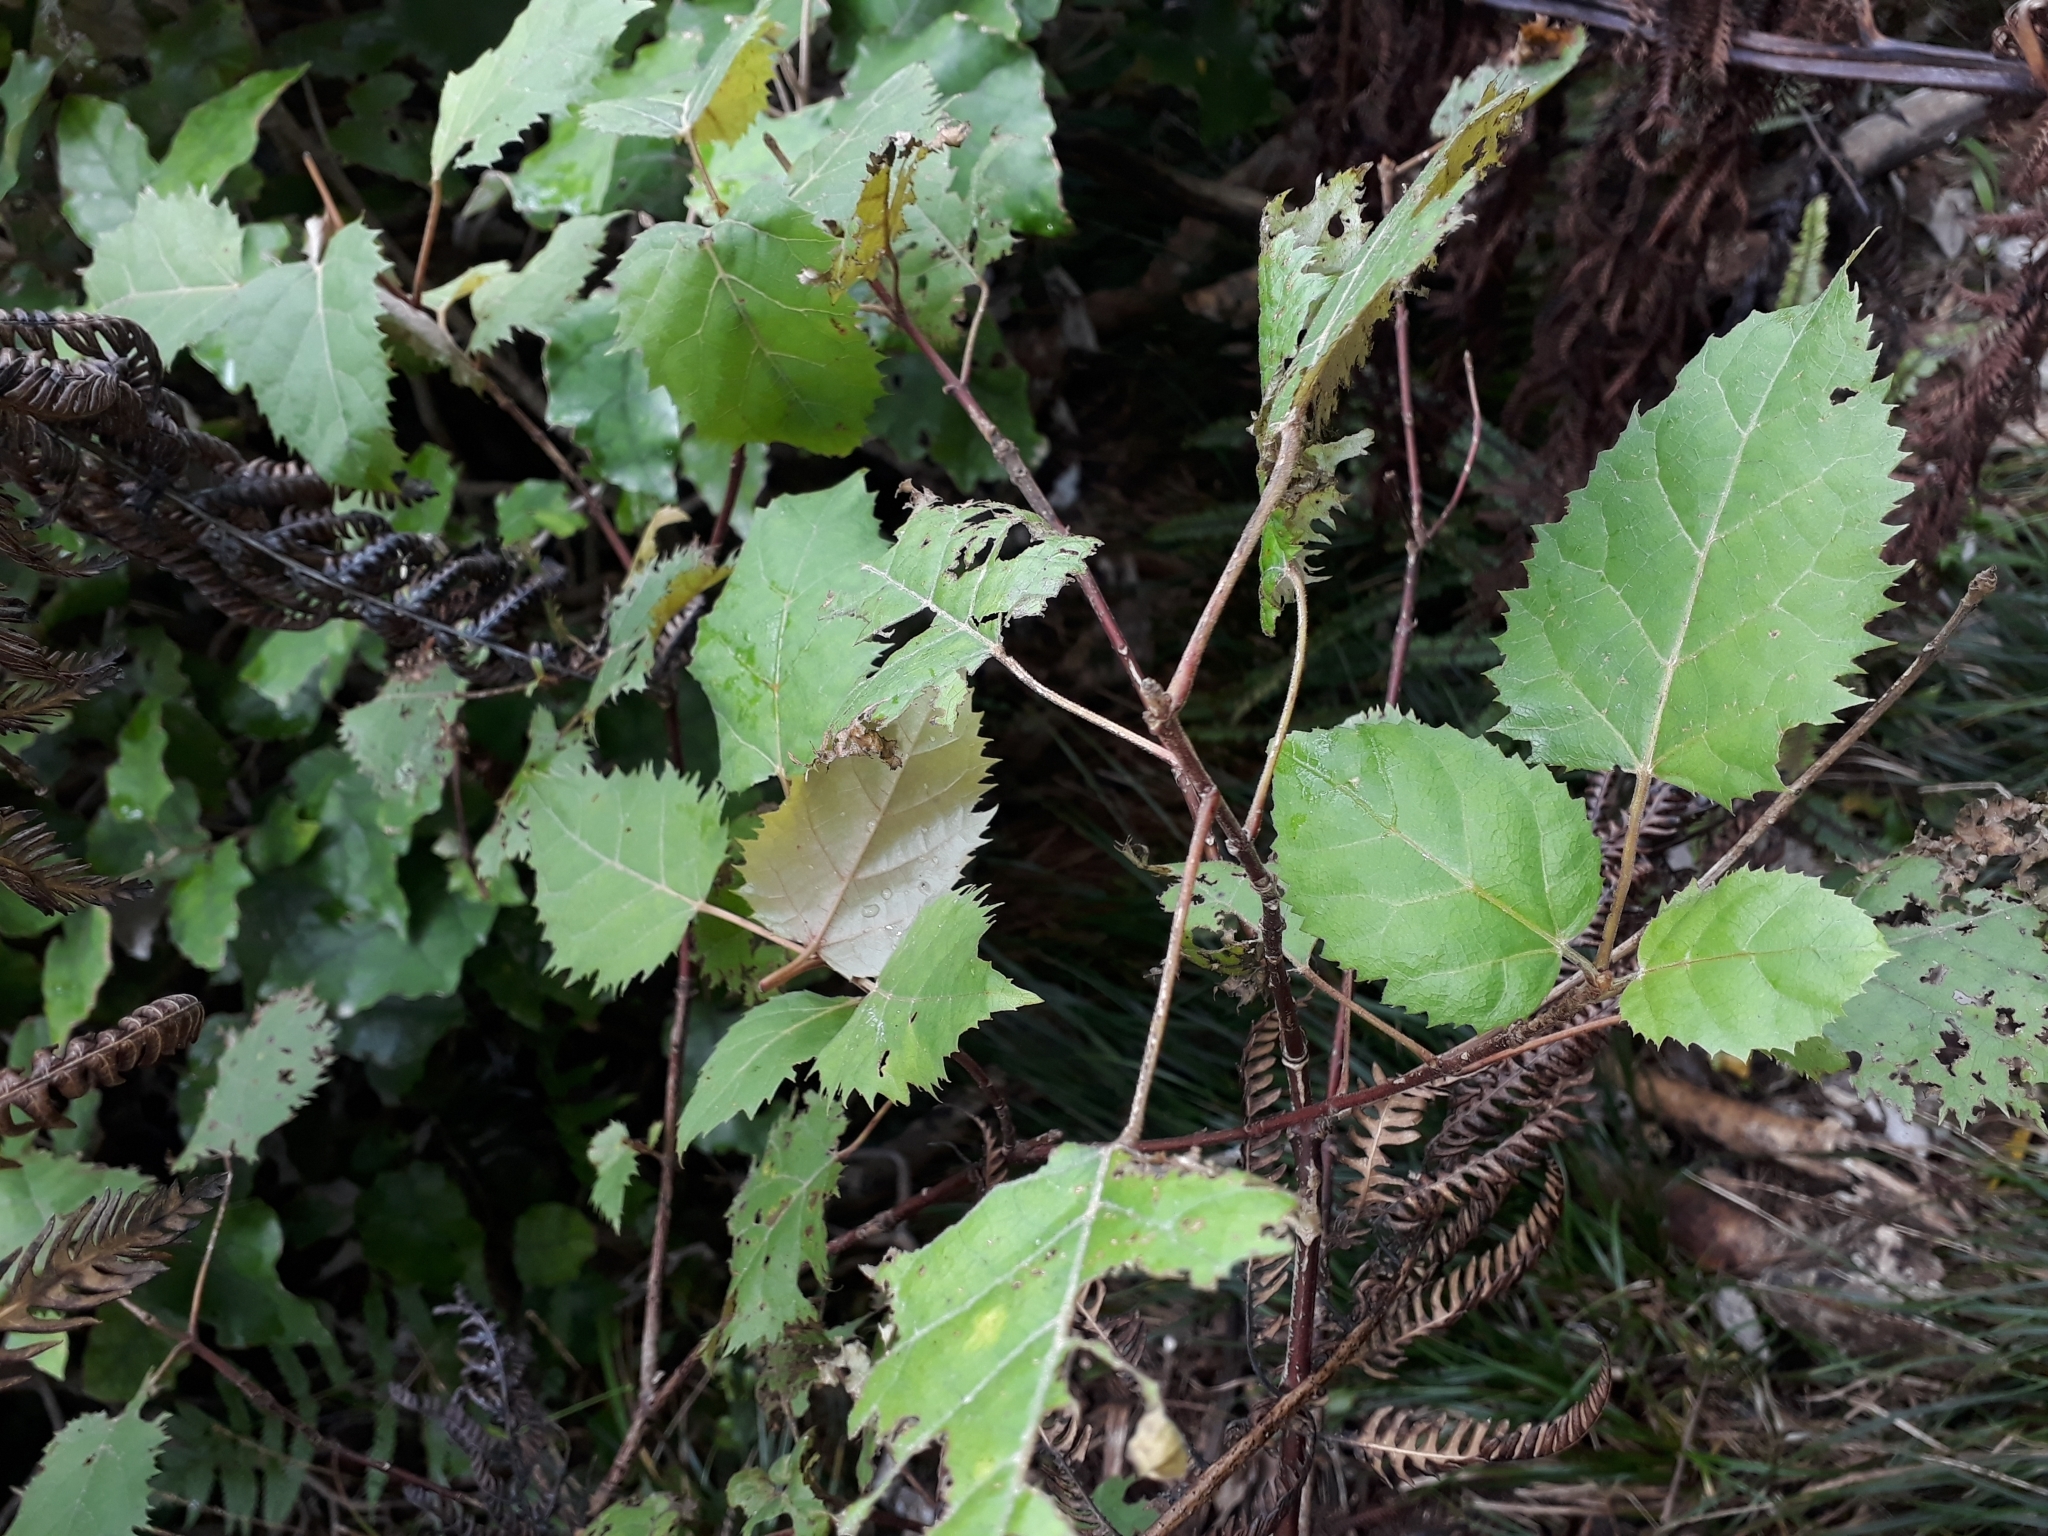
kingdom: Plantae
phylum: Tracheophyta
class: Magnoliopsida
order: Oxalidales
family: Elaeocarpaceae
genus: Aristotelia
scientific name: Aristotelia serrata
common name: New zealand wineberry
